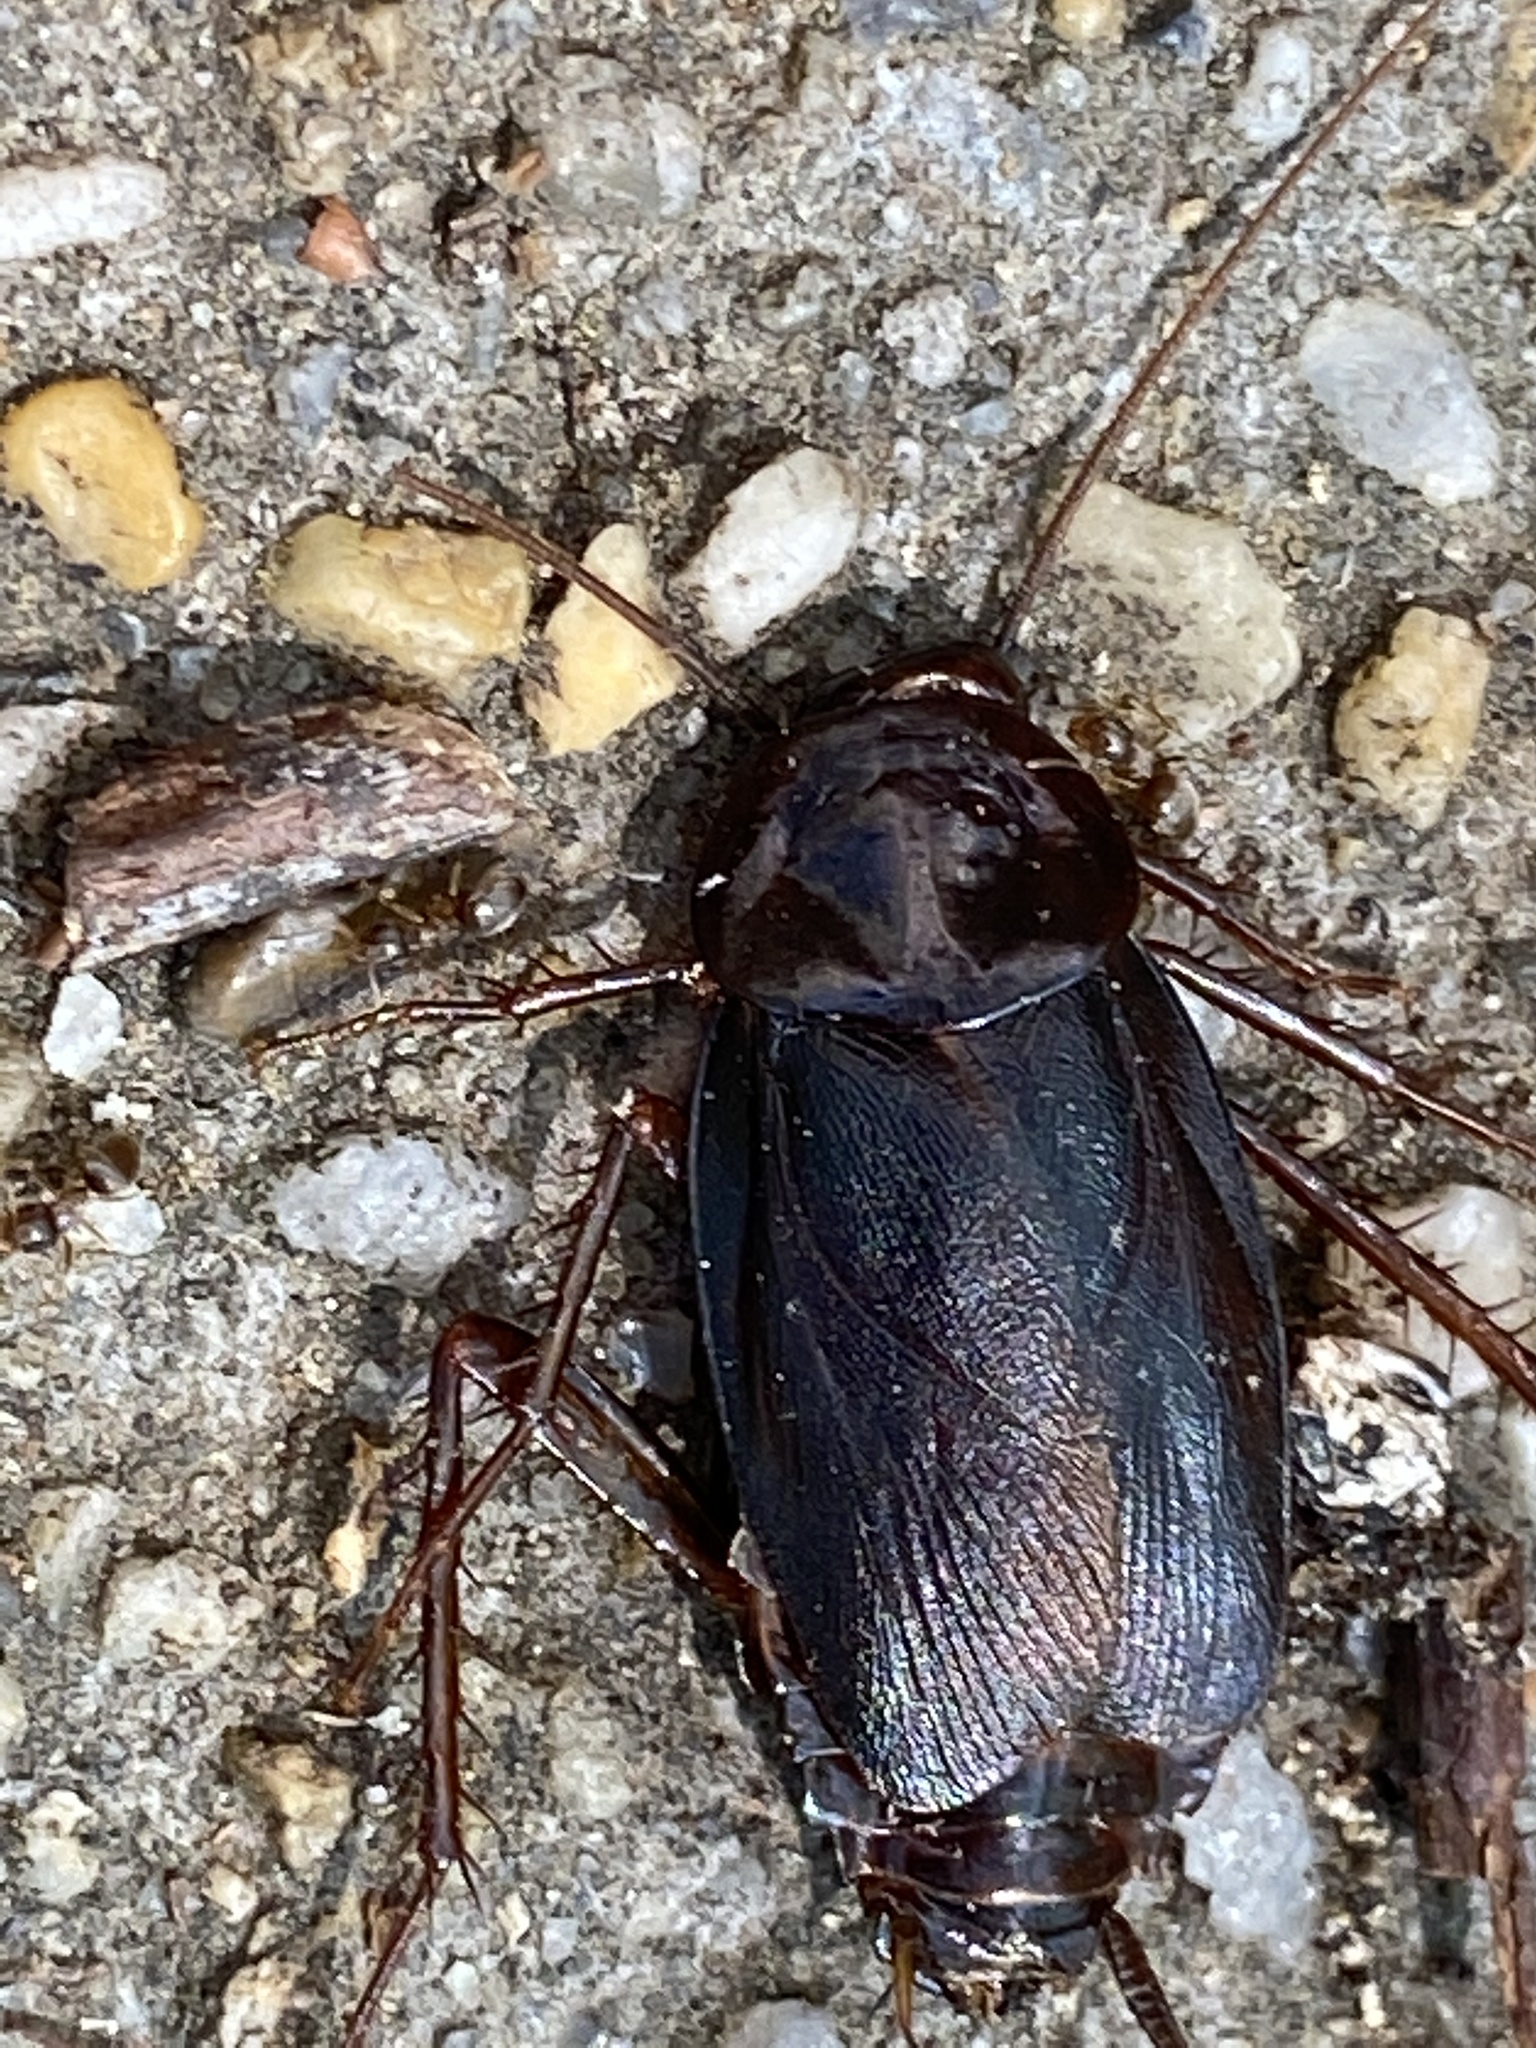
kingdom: Animalia
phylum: Arthropoda
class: Insecta
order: Blattodea
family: Blattidae
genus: Blatta
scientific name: Blatta orientalis
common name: Oriental cockroach
